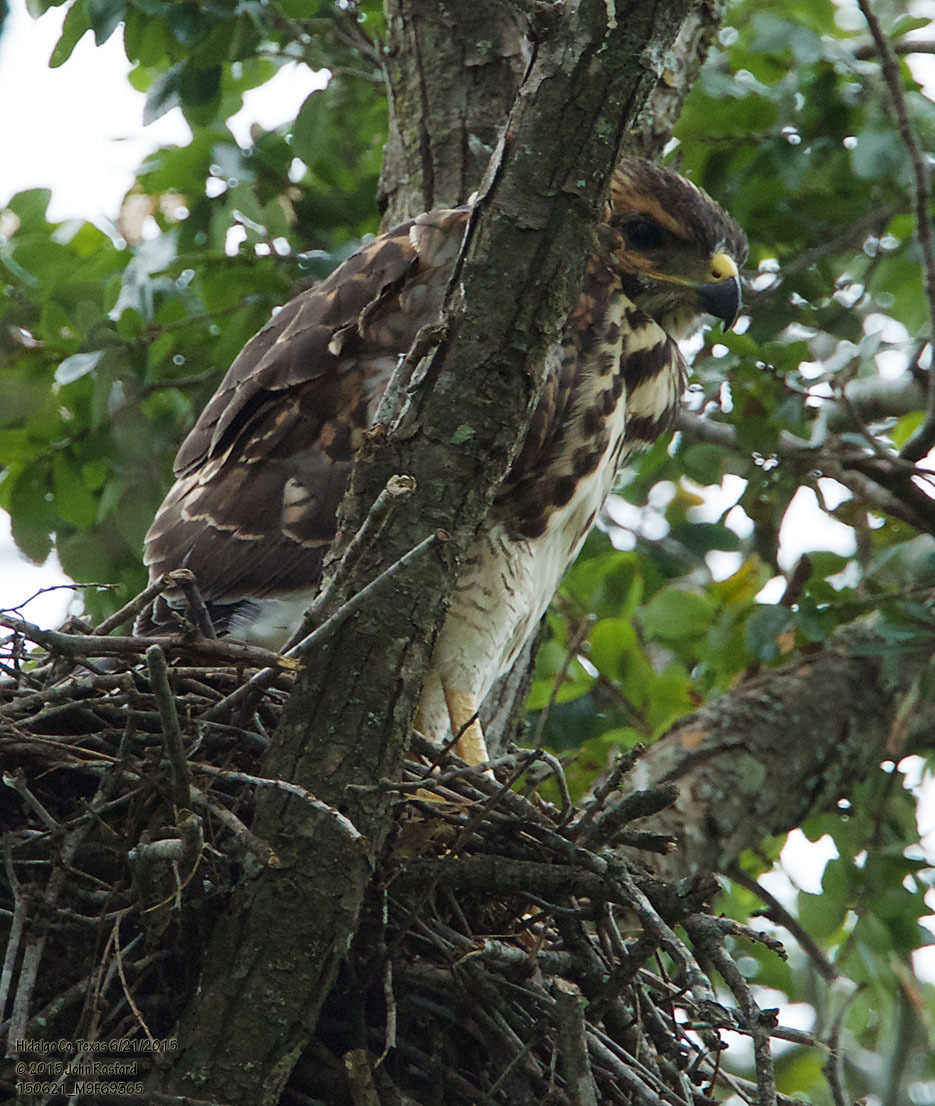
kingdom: Animalia
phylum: Chordata
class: Aves
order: Accipitriformes
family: Accipitridae
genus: Buteo
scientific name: Buteo nitidus
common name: Grey-lined hawk
